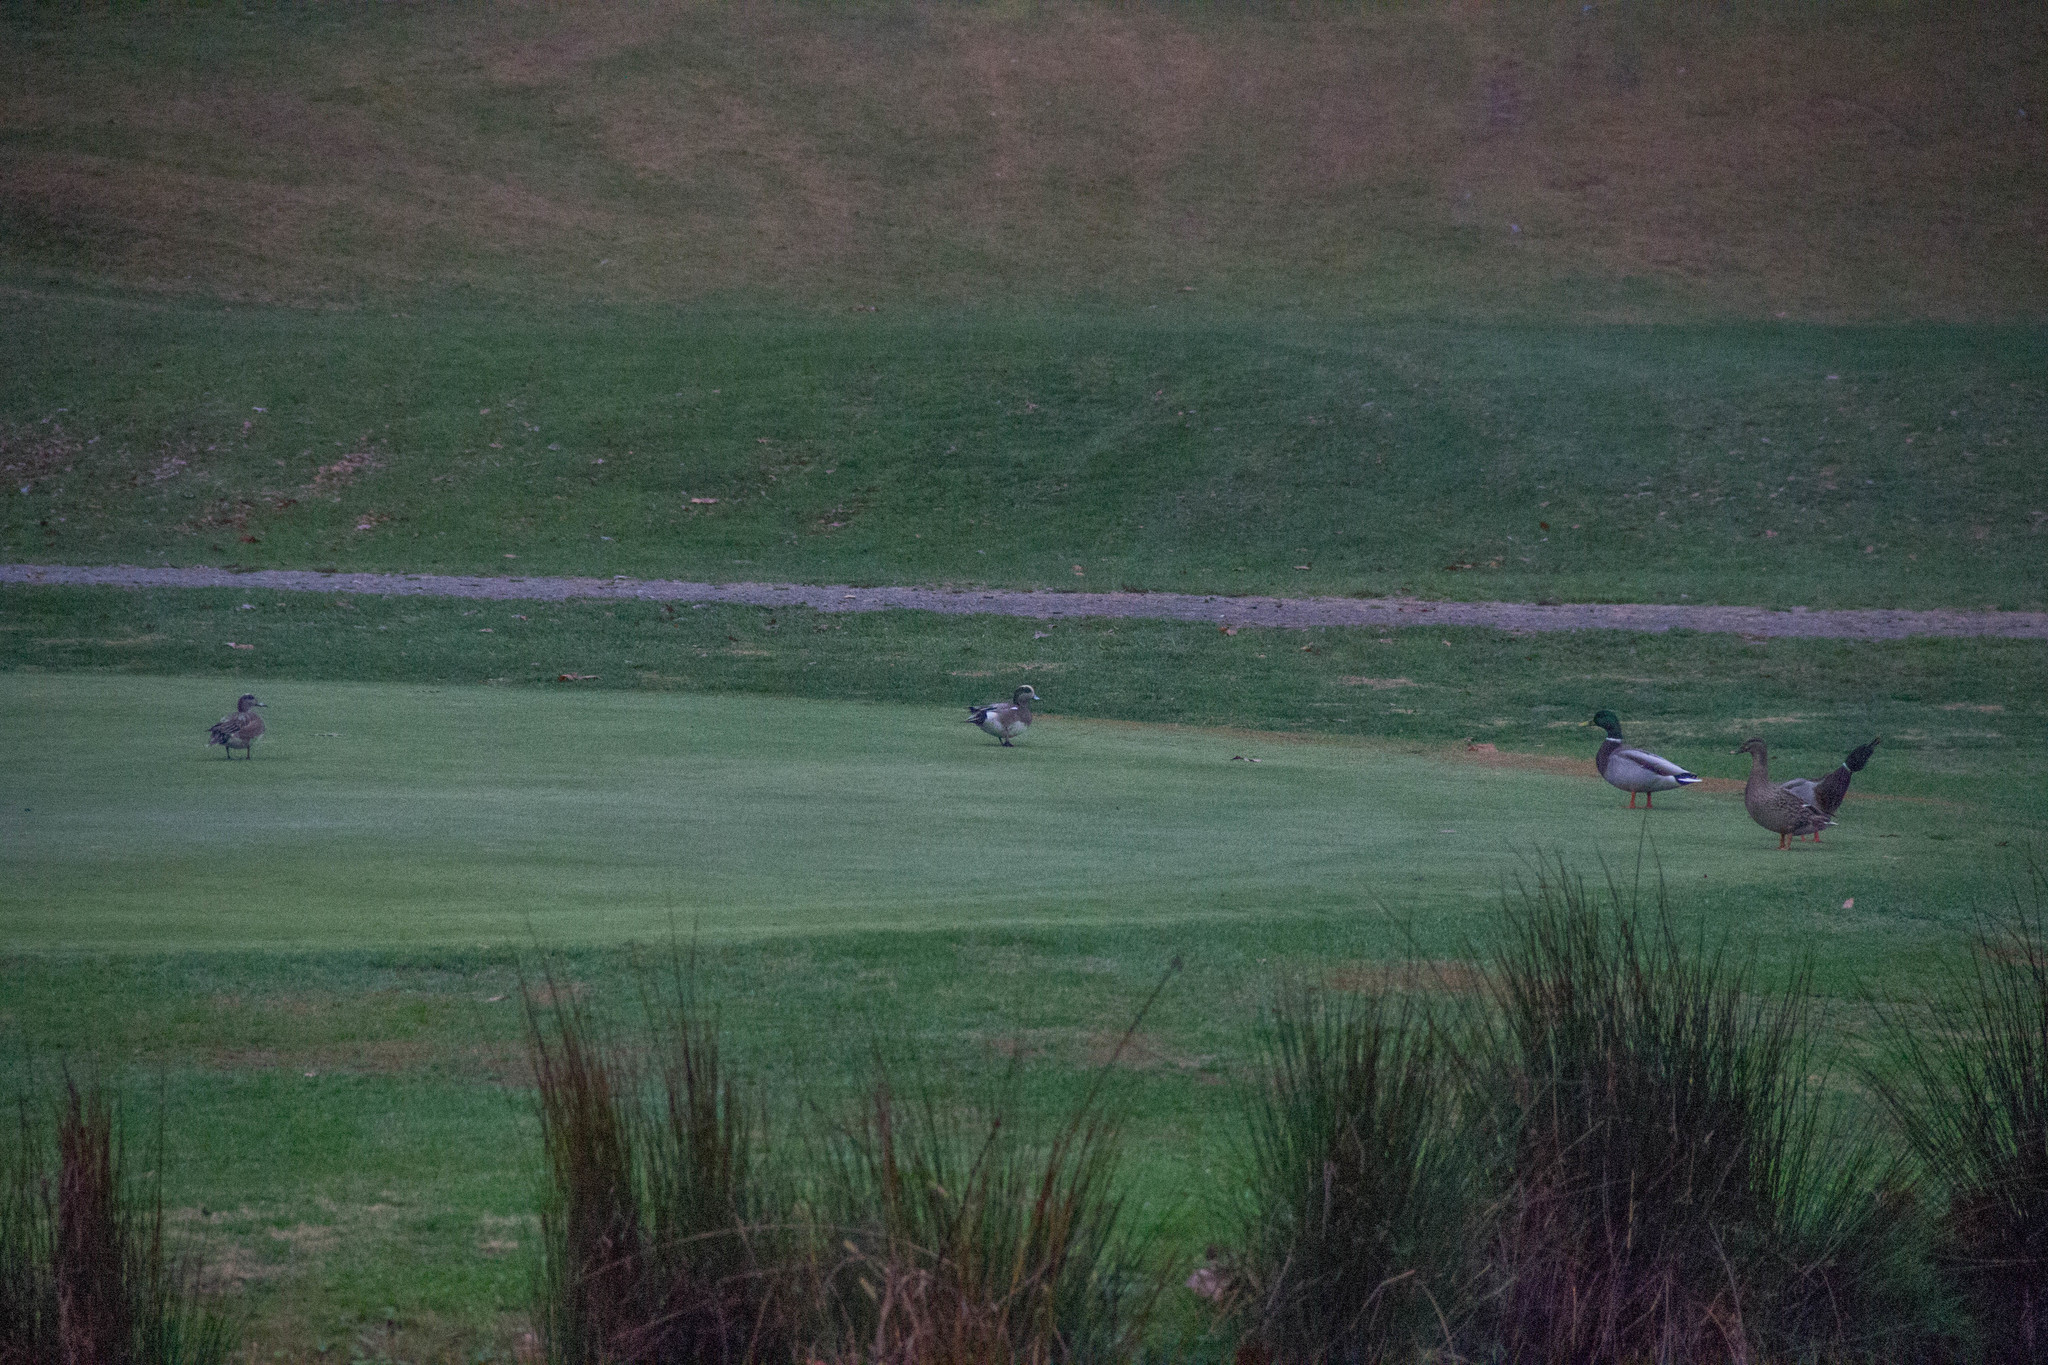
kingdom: Animalia
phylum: Chordata
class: Aves
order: Anseriformes
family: Anatidae
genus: Mareca
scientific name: Mareca americana
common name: American wigeon
